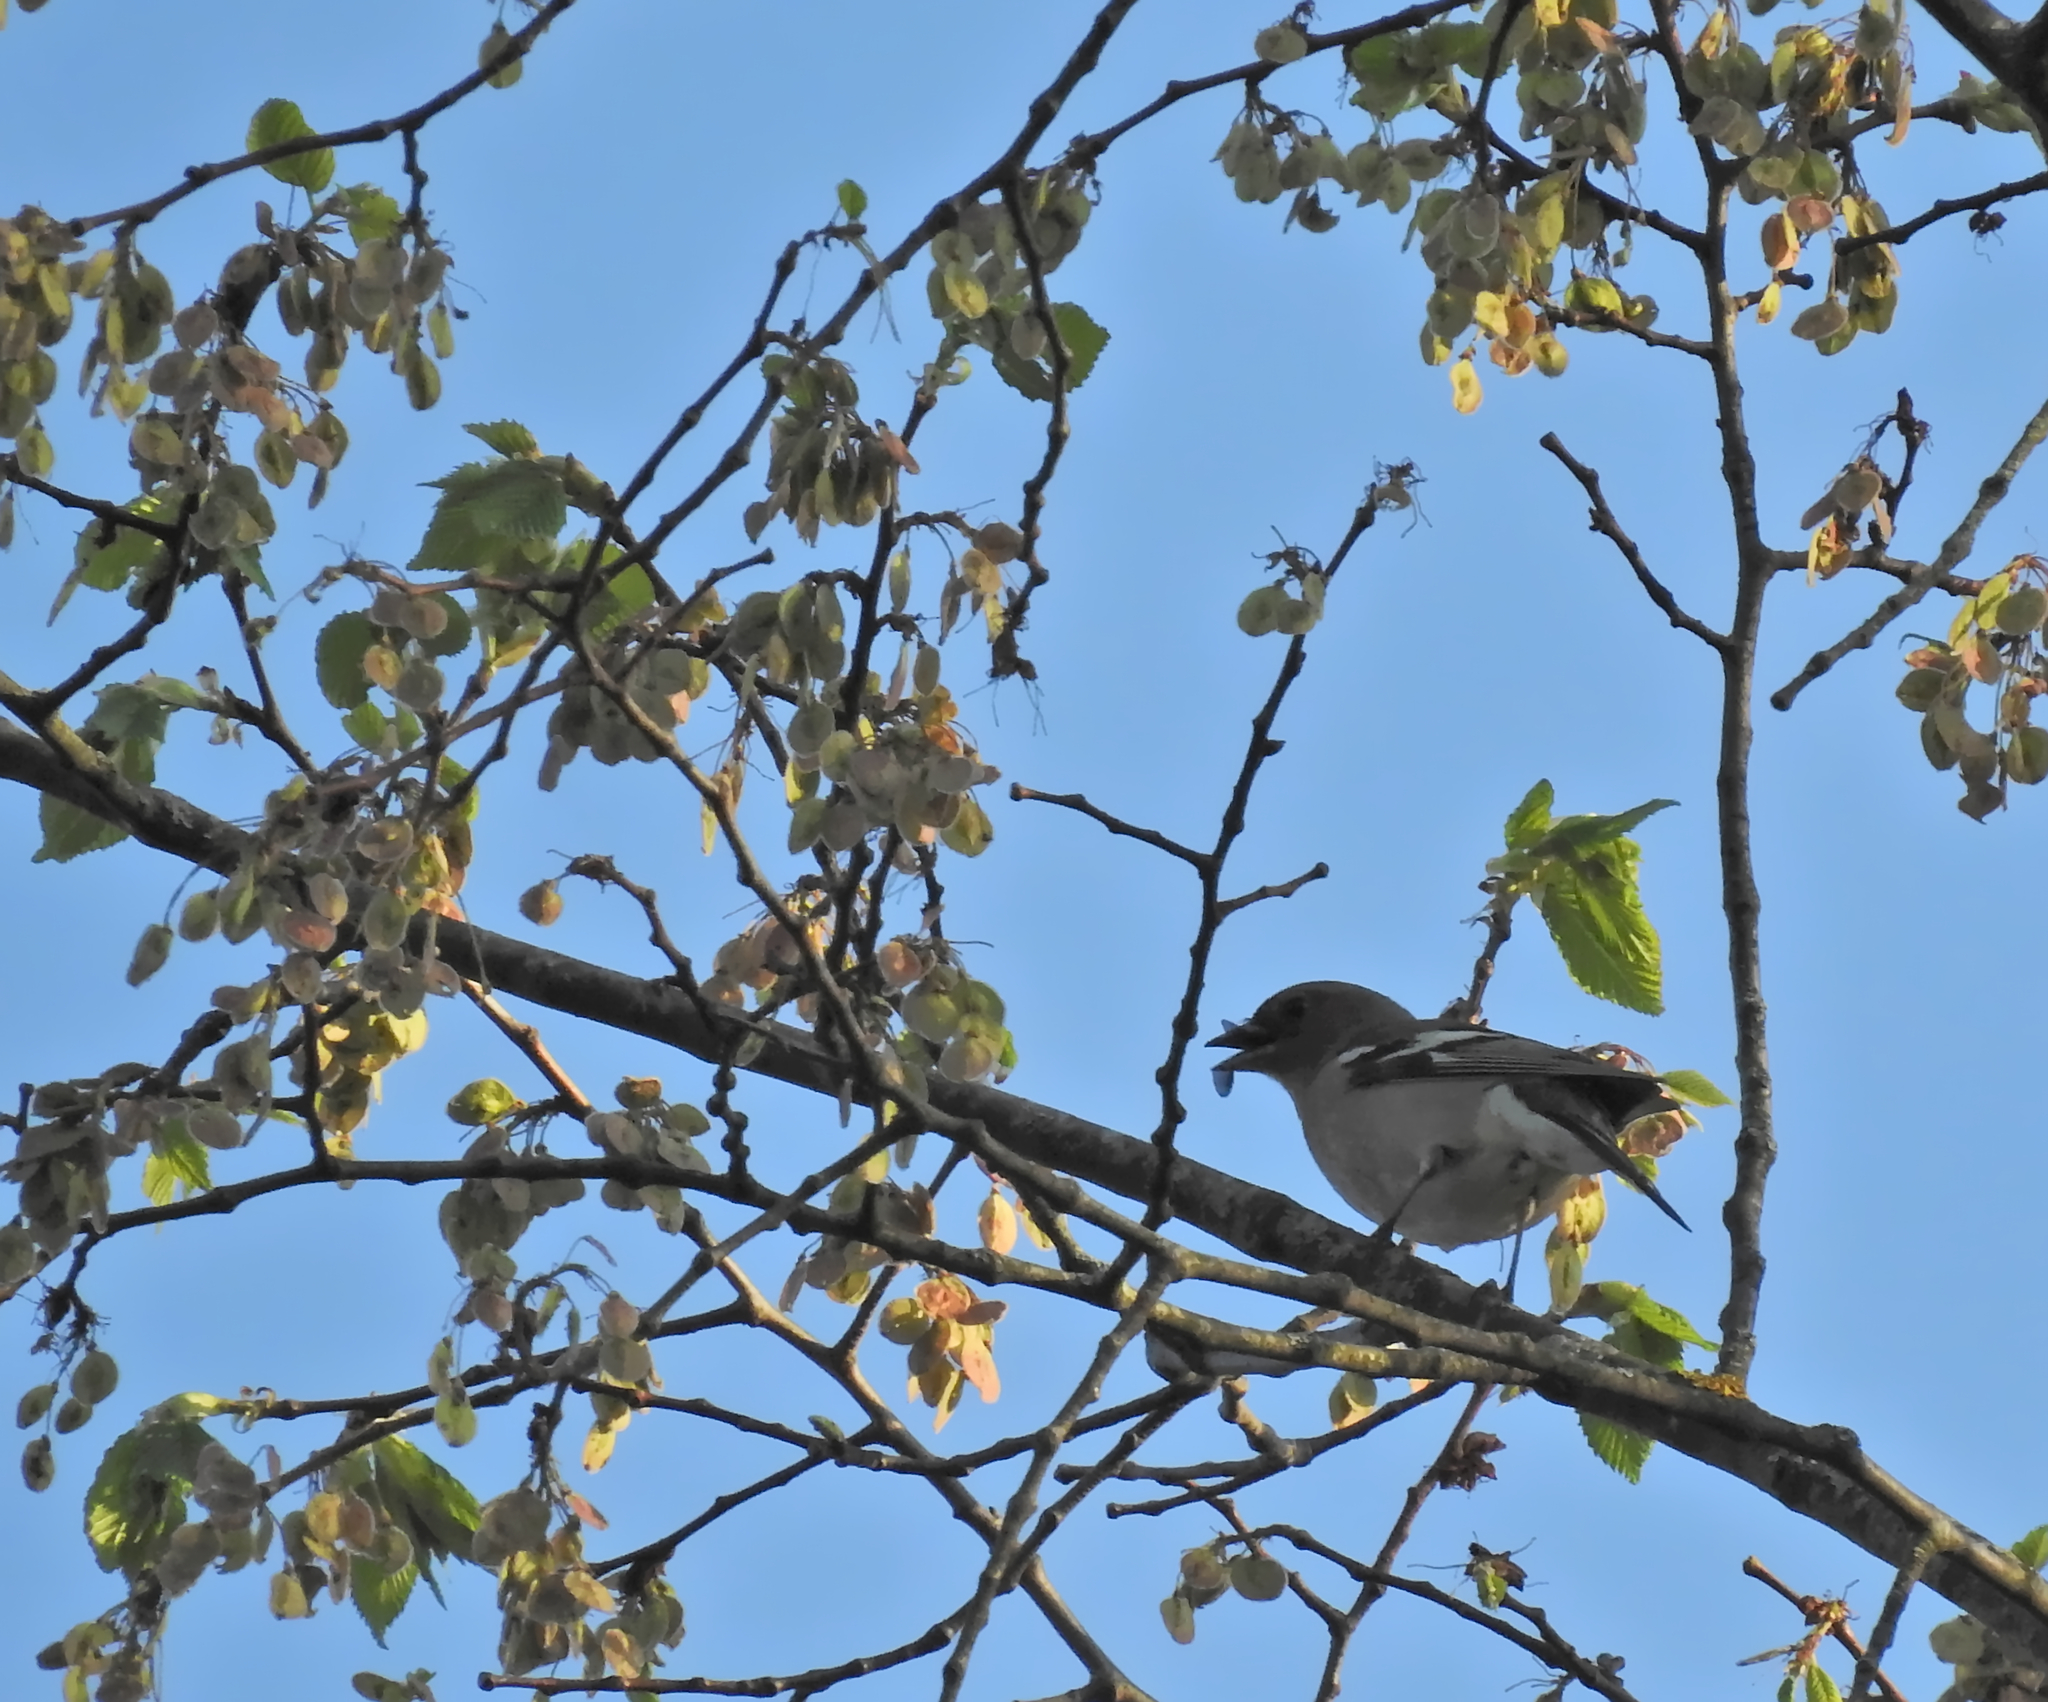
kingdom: Animalia
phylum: Chordata
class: Aves
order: Passeriformes
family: Fringillidae
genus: Fringilla
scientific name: Fringilla coelebs
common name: Common chaffinch
